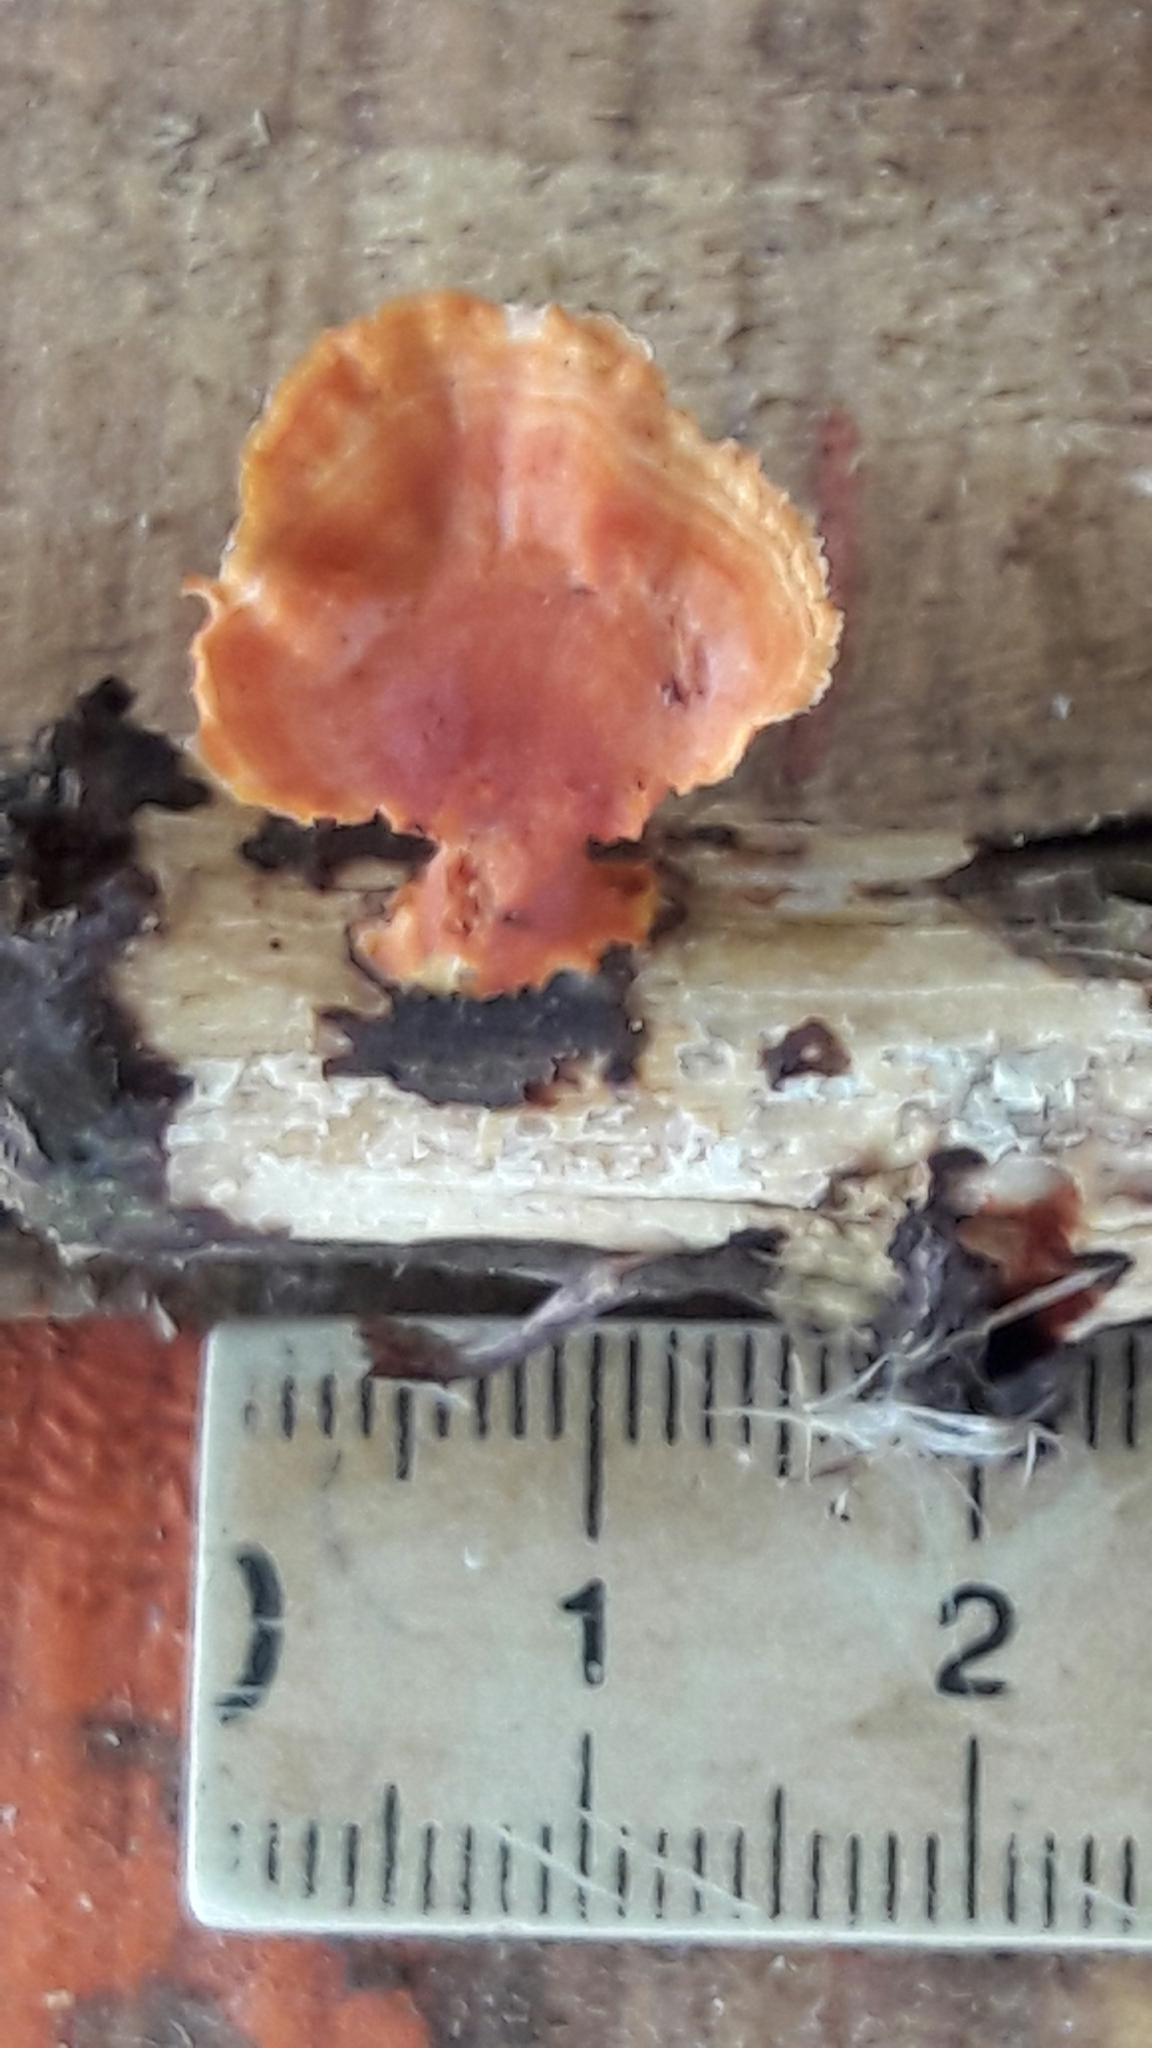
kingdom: Fungi
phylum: Basidiomycota
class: Agaricomycetes
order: Polyporales
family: Polyporaceae
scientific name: Polyporaceae
